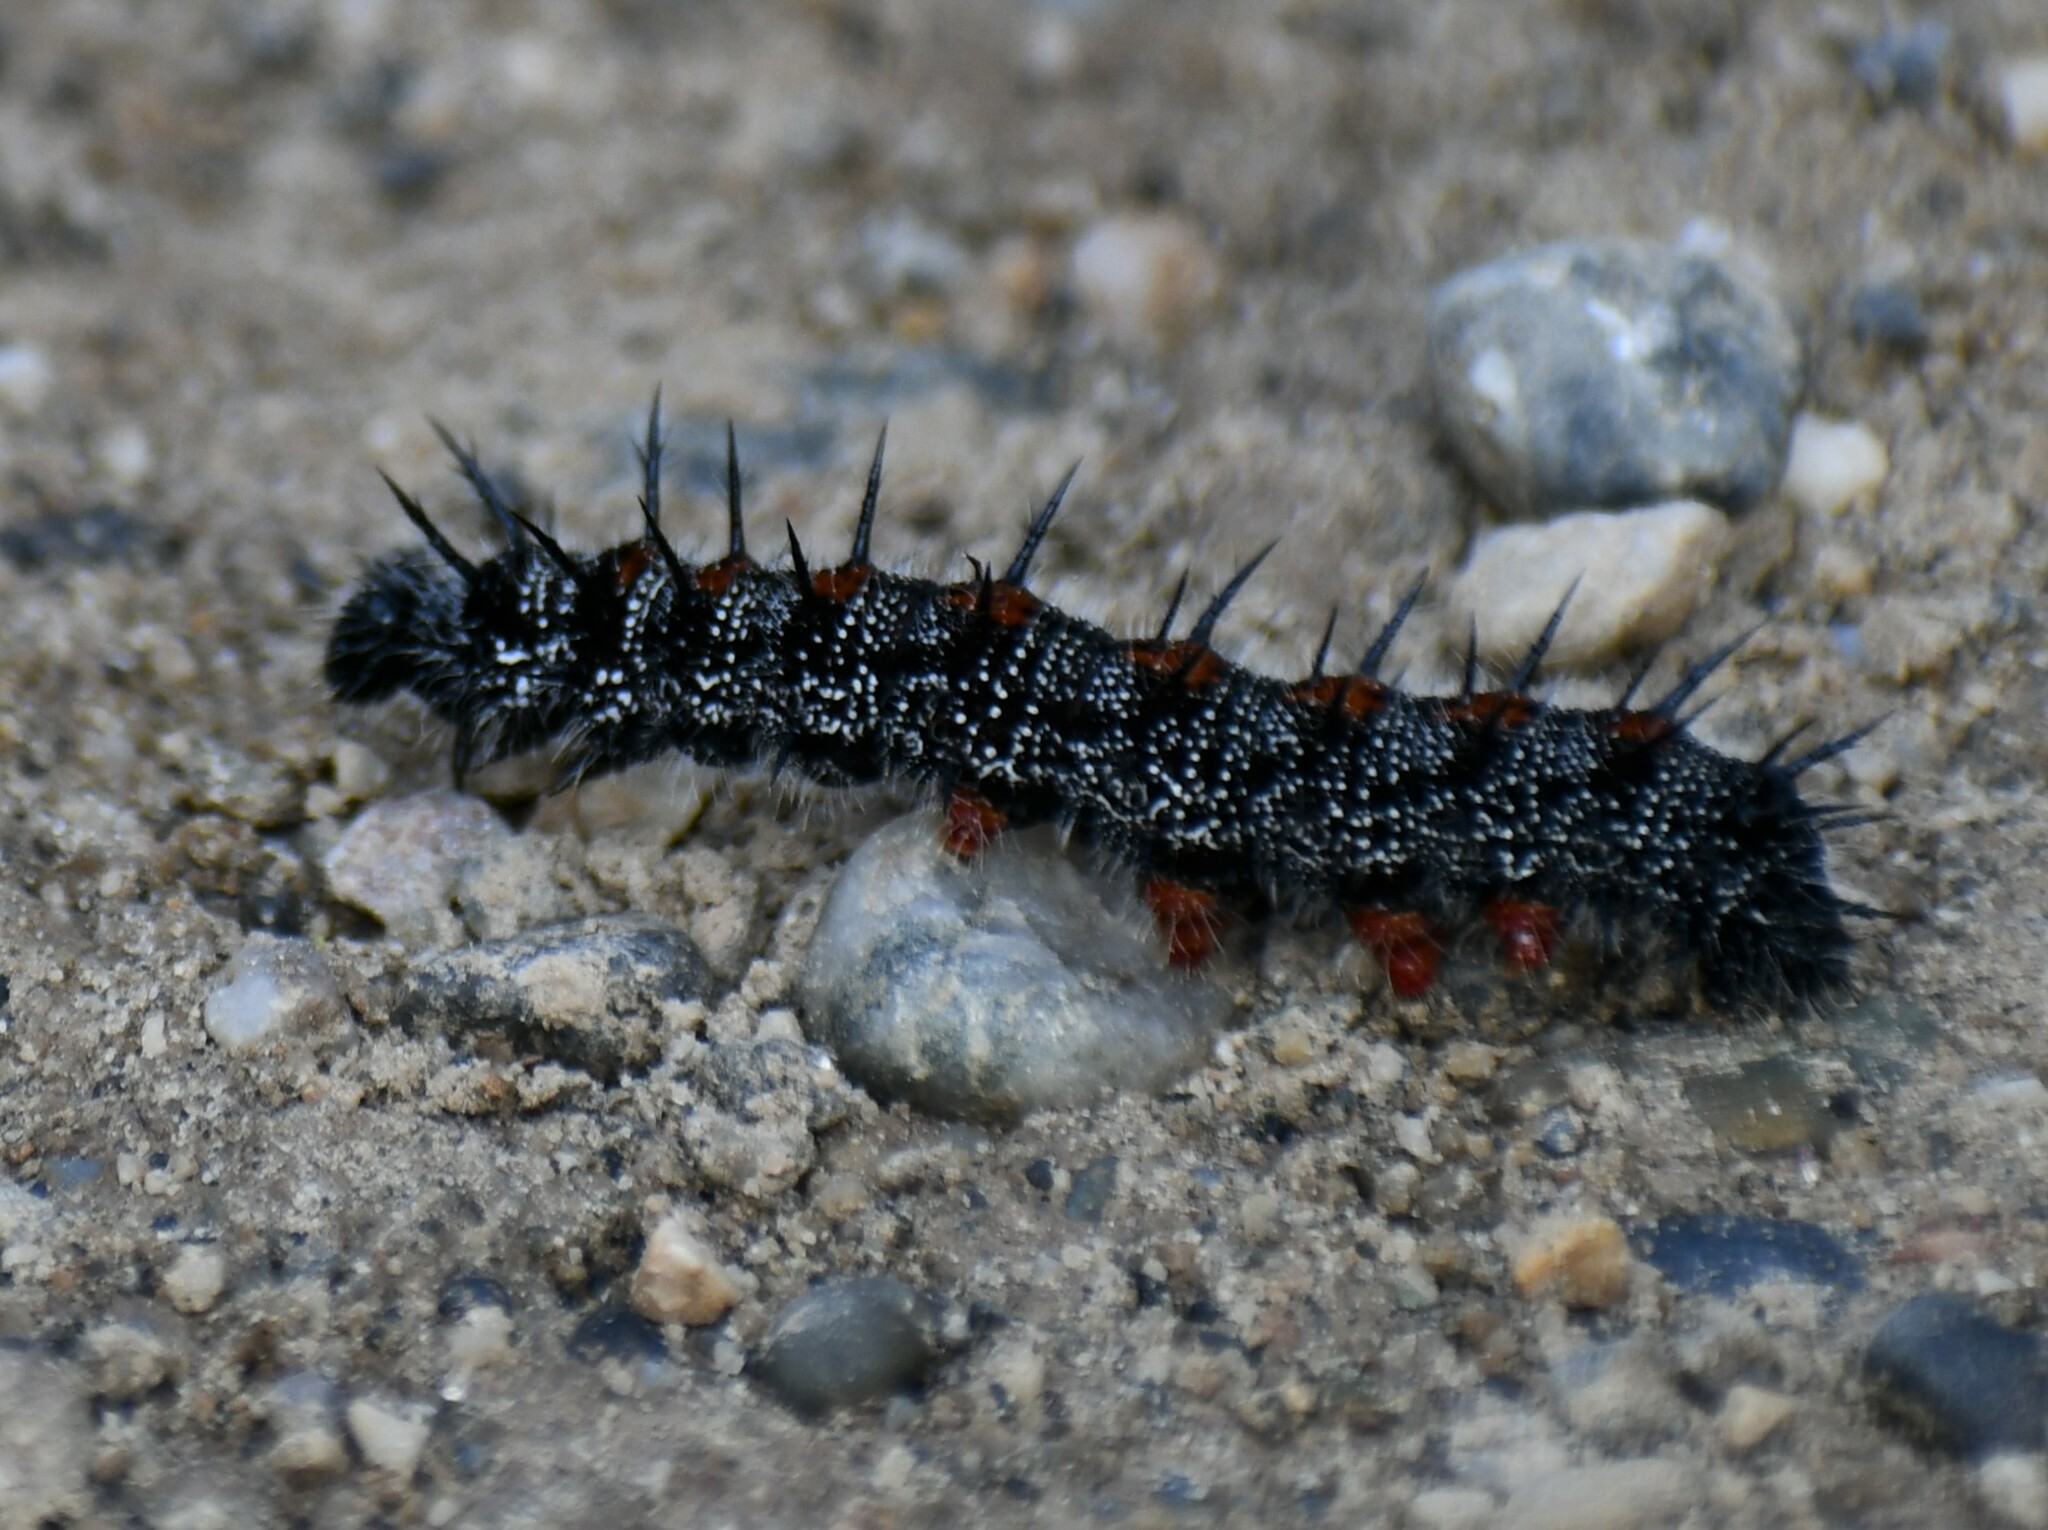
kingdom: Animalia
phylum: Arthropoda
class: Insecta
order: Lepidoptera
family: Nymphalidae
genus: Nymphalis
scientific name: Nymphalis antiopa
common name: Camberwell beauty
